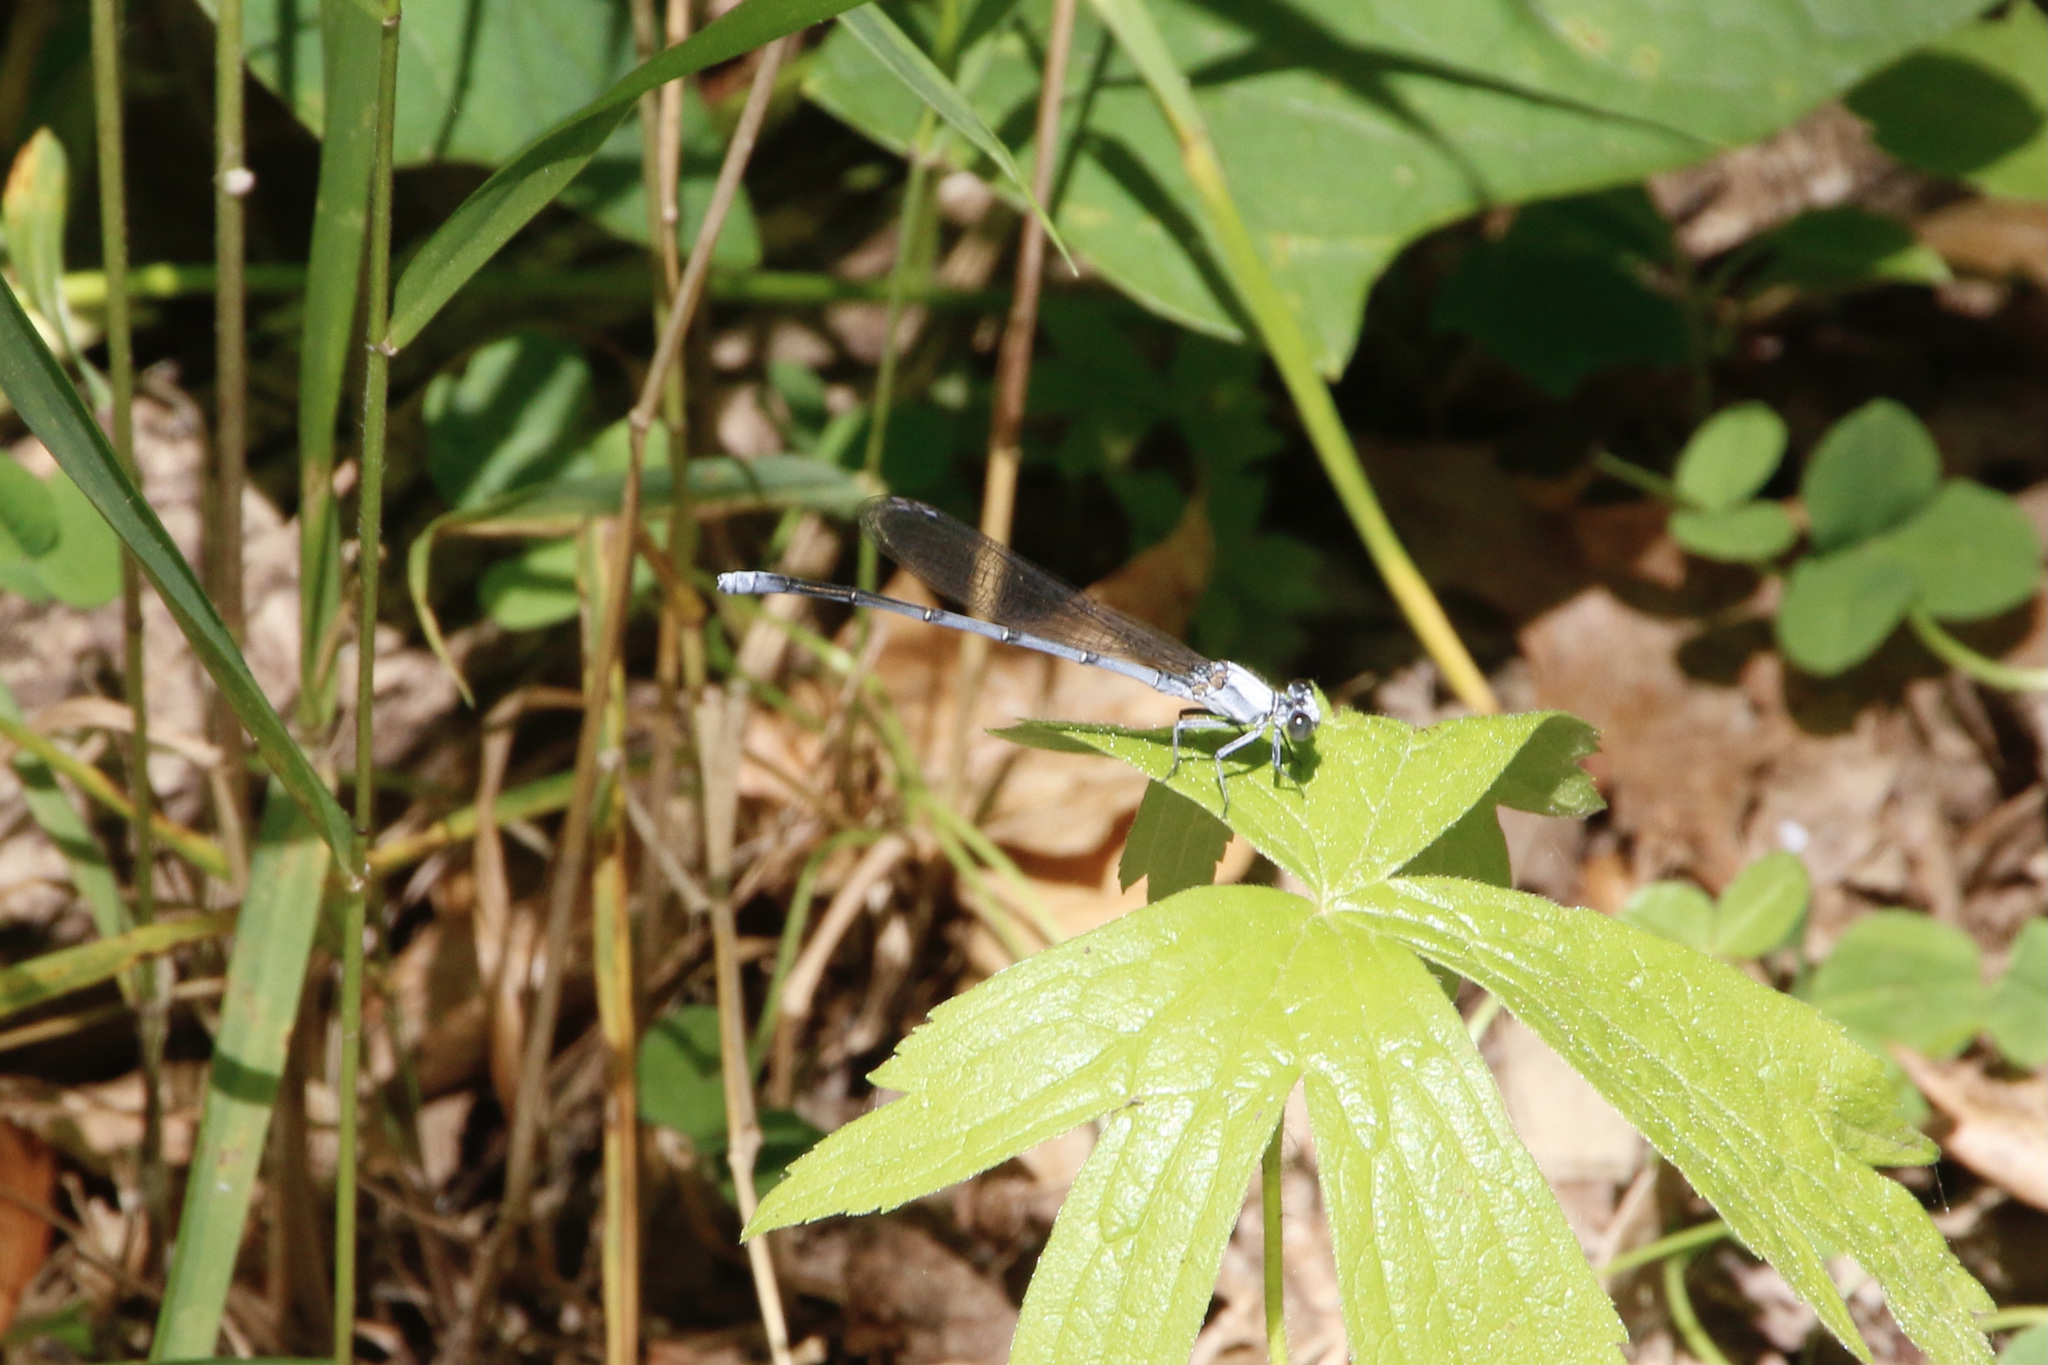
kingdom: Animalia
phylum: Arthropoda
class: Insecta
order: Odonata
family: Coenagrionidae
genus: Argia
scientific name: Argia moesta
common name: Powdered dancer
